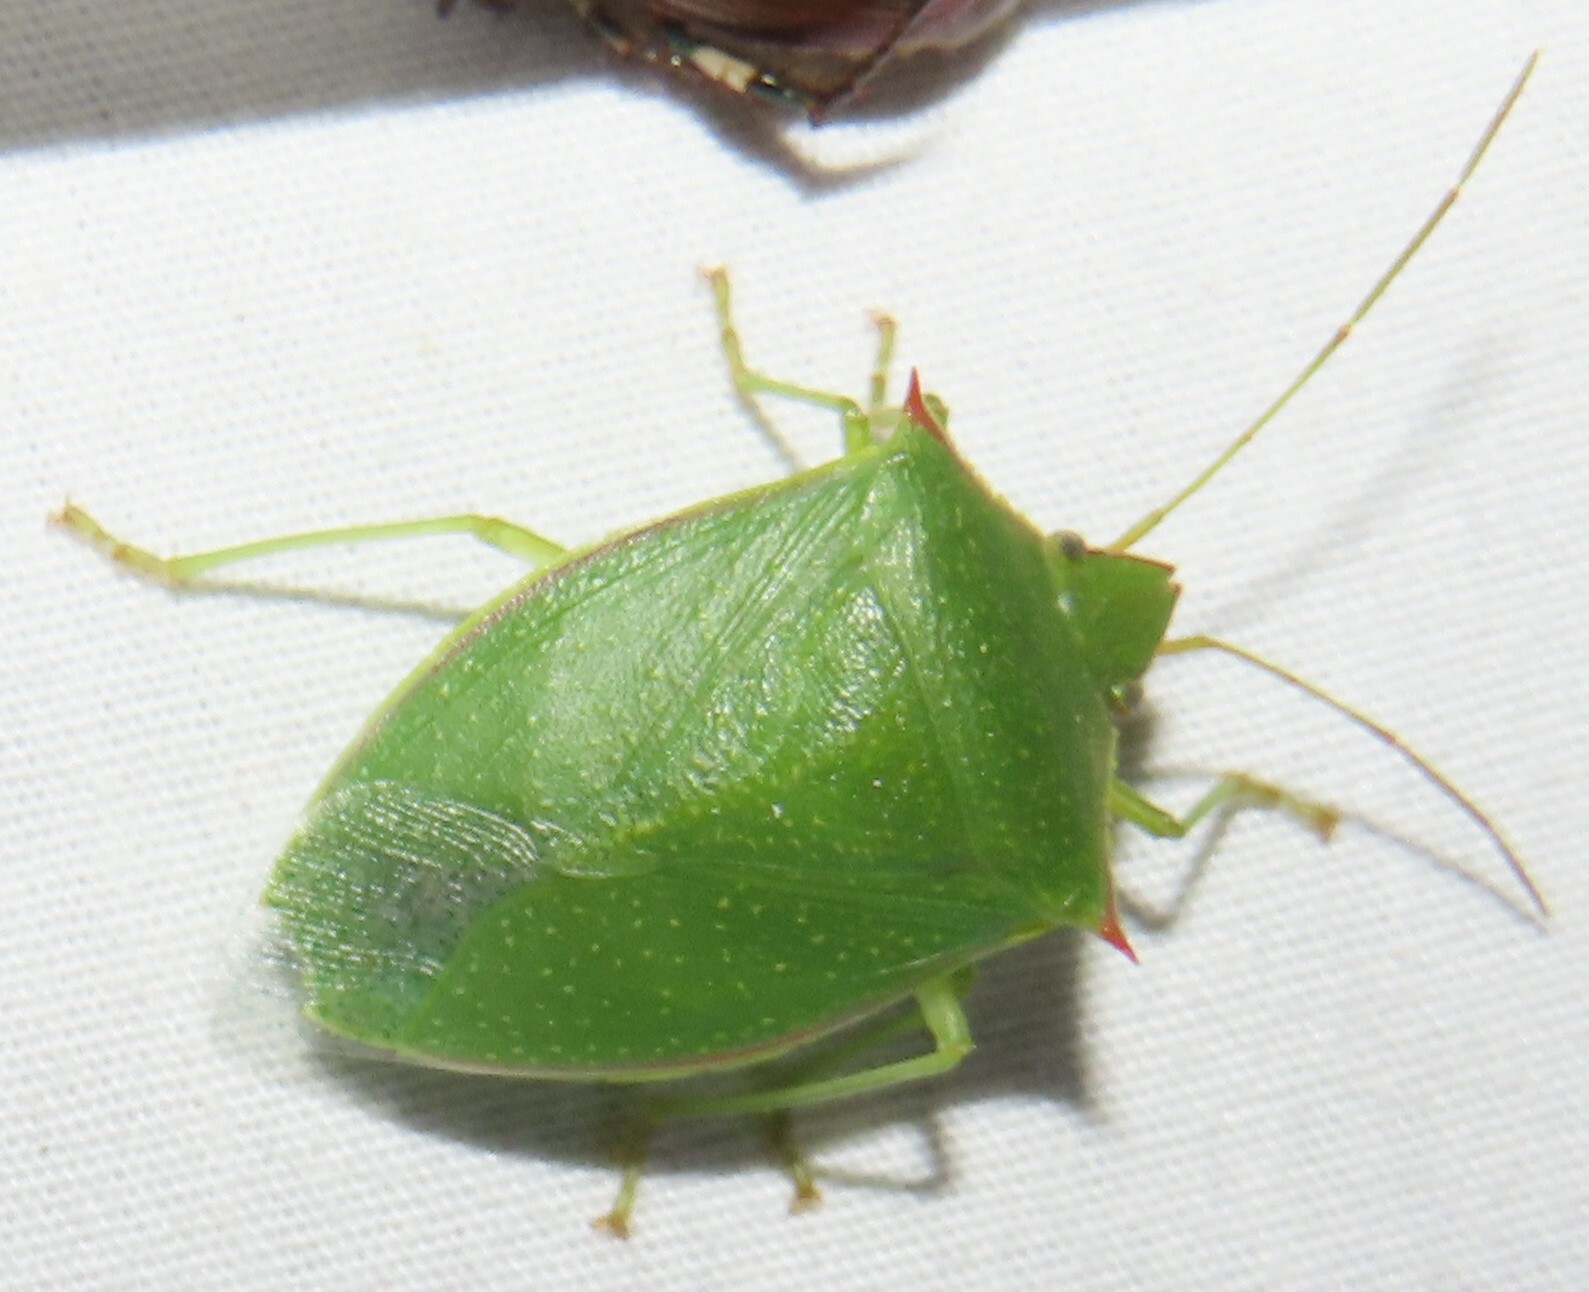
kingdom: Animalia
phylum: Arthropoda
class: Insecta
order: Hemiptera
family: Pentatomidae
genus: Loxa
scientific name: Loxa flavicollis
